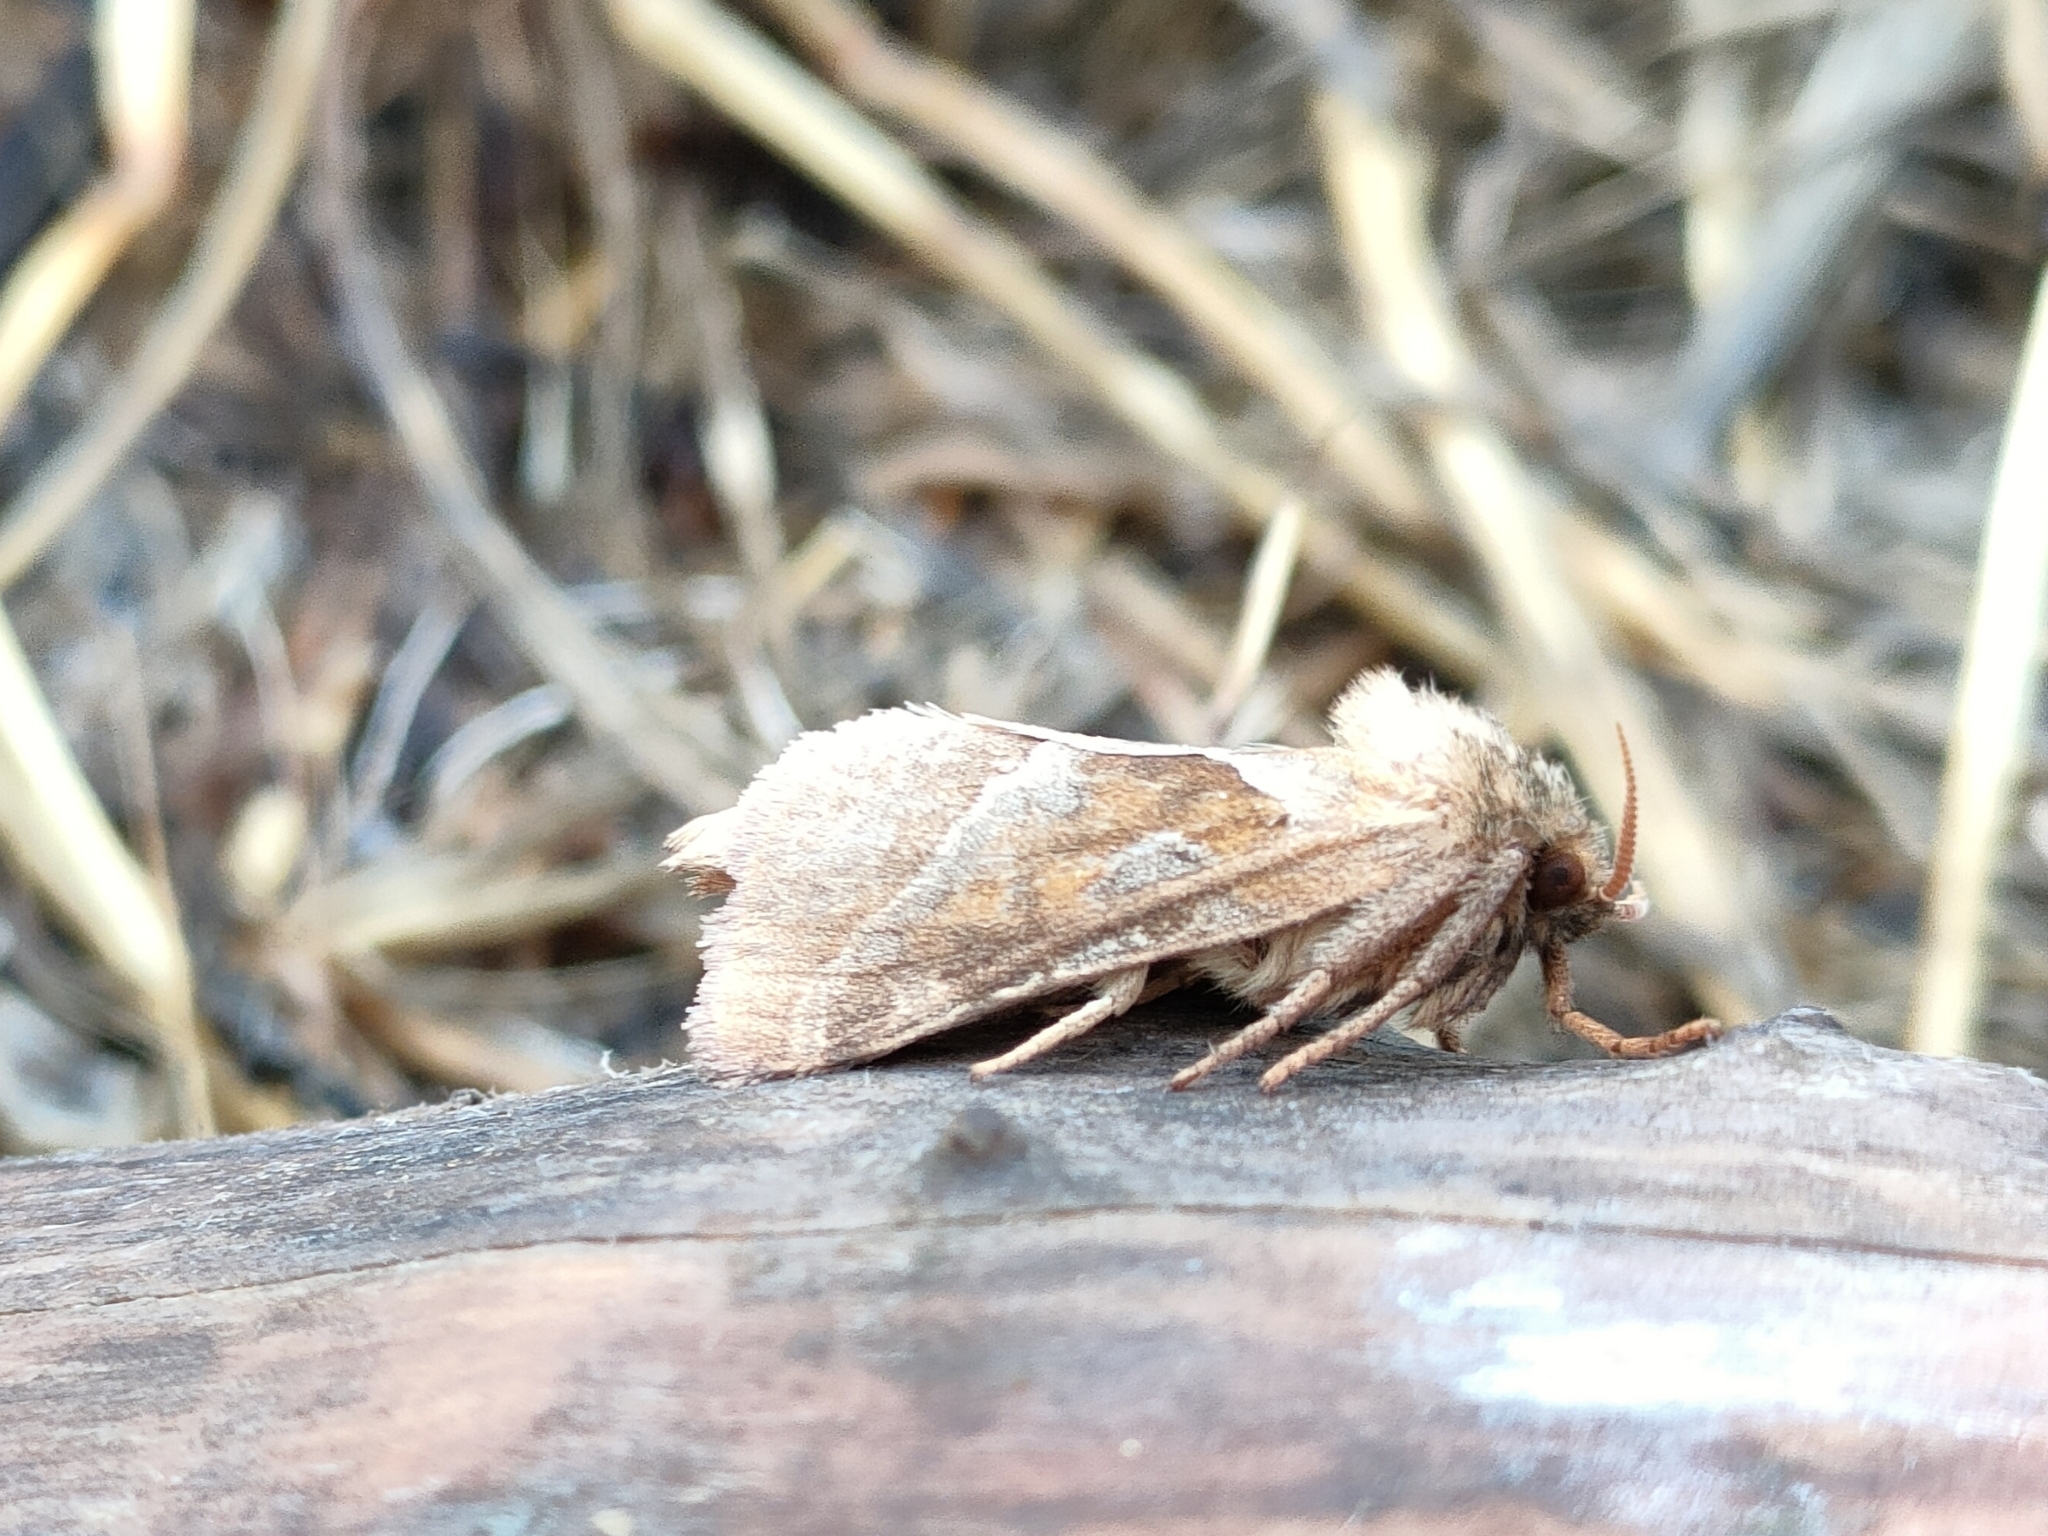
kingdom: Animalia
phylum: Arthropoda
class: Insecta
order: Lepidoptera
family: Hepialidae
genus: Triodia
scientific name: Triodia sylvina
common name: Orange swift
